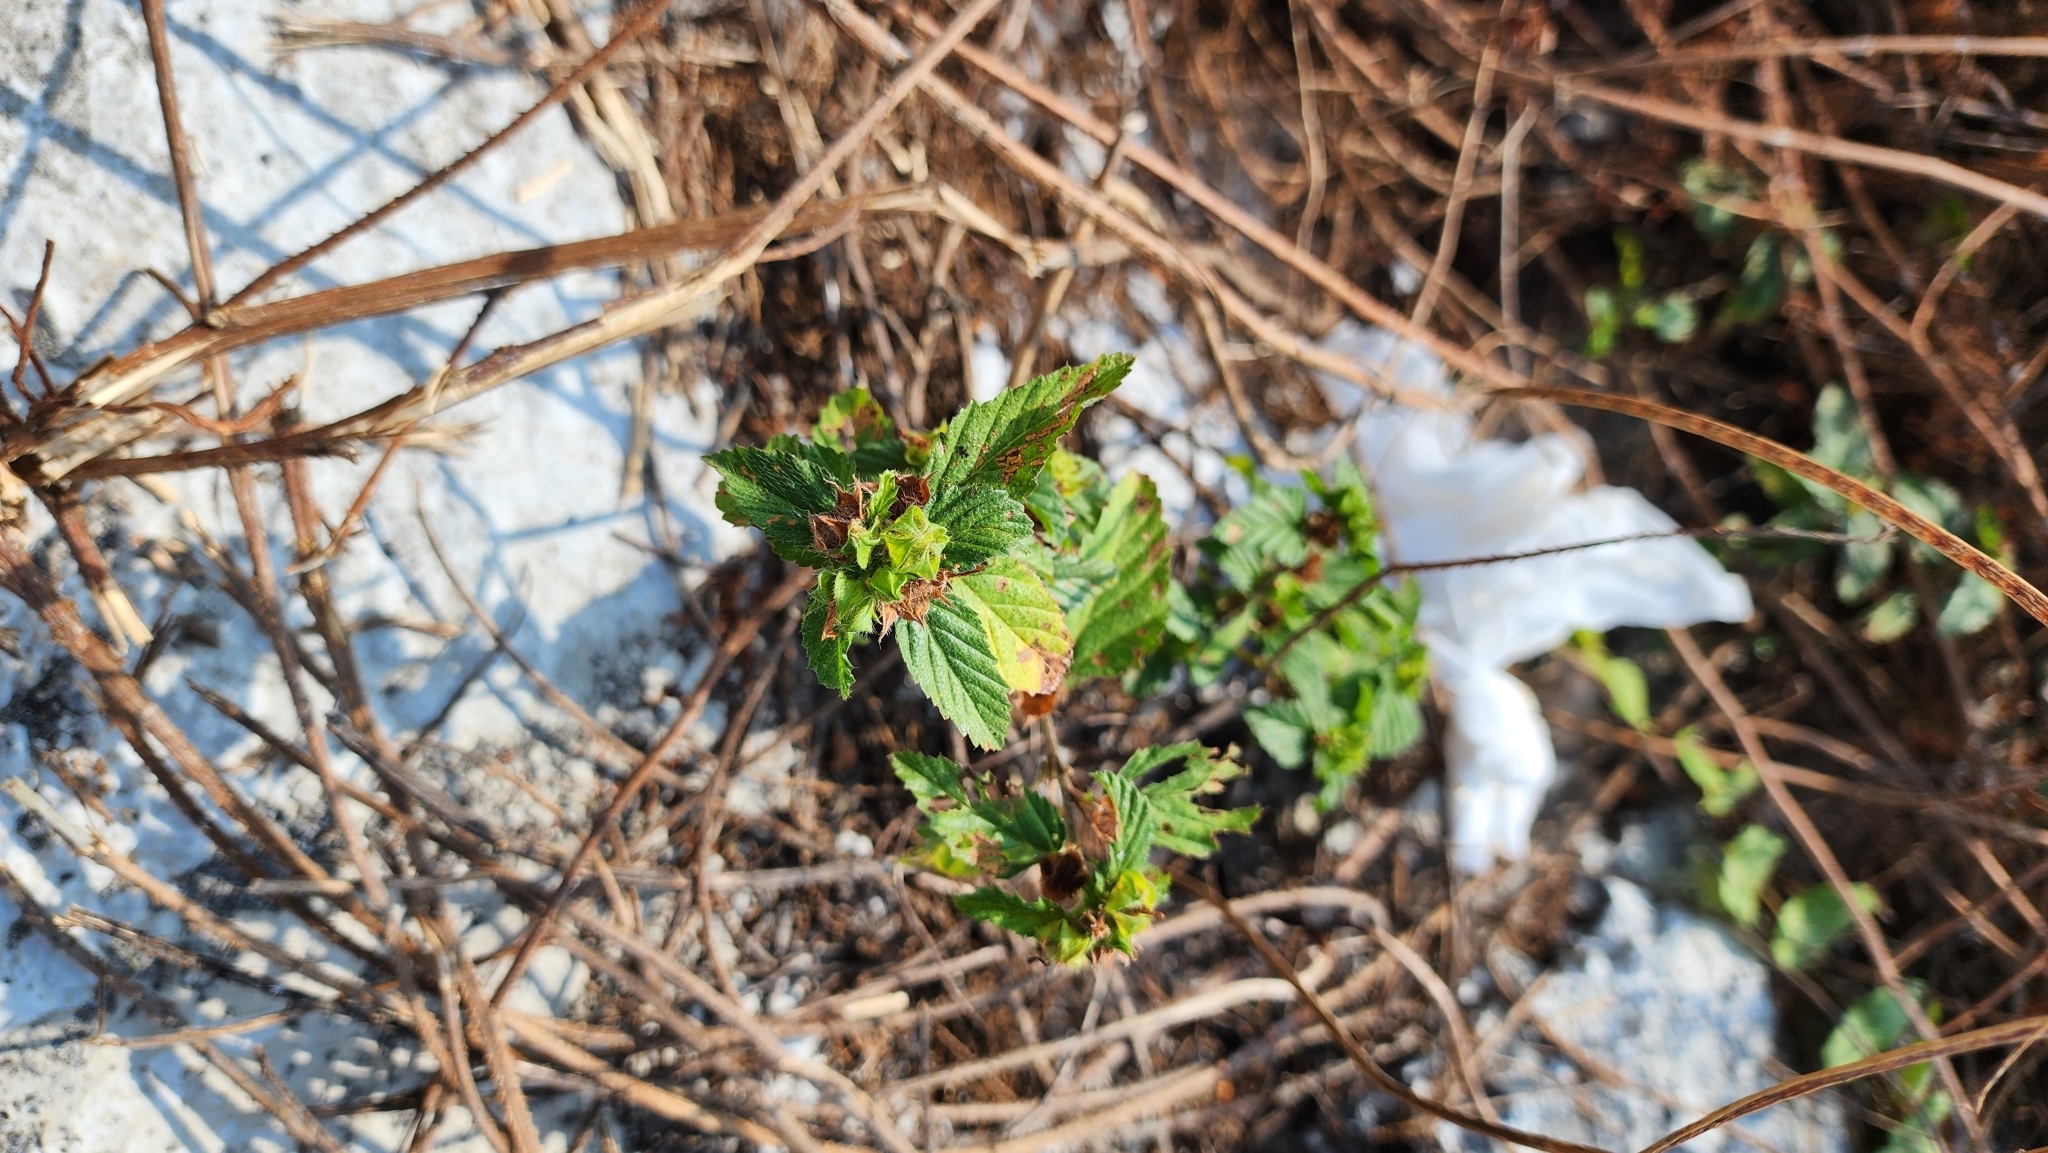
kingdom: Plantae
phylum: Tracheophyta
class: Magnoliopsida
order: Malvales
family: Malvaceae
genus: Malvastrum
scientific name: Malvastrum coromandelianum
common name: Threelobe false mallow
